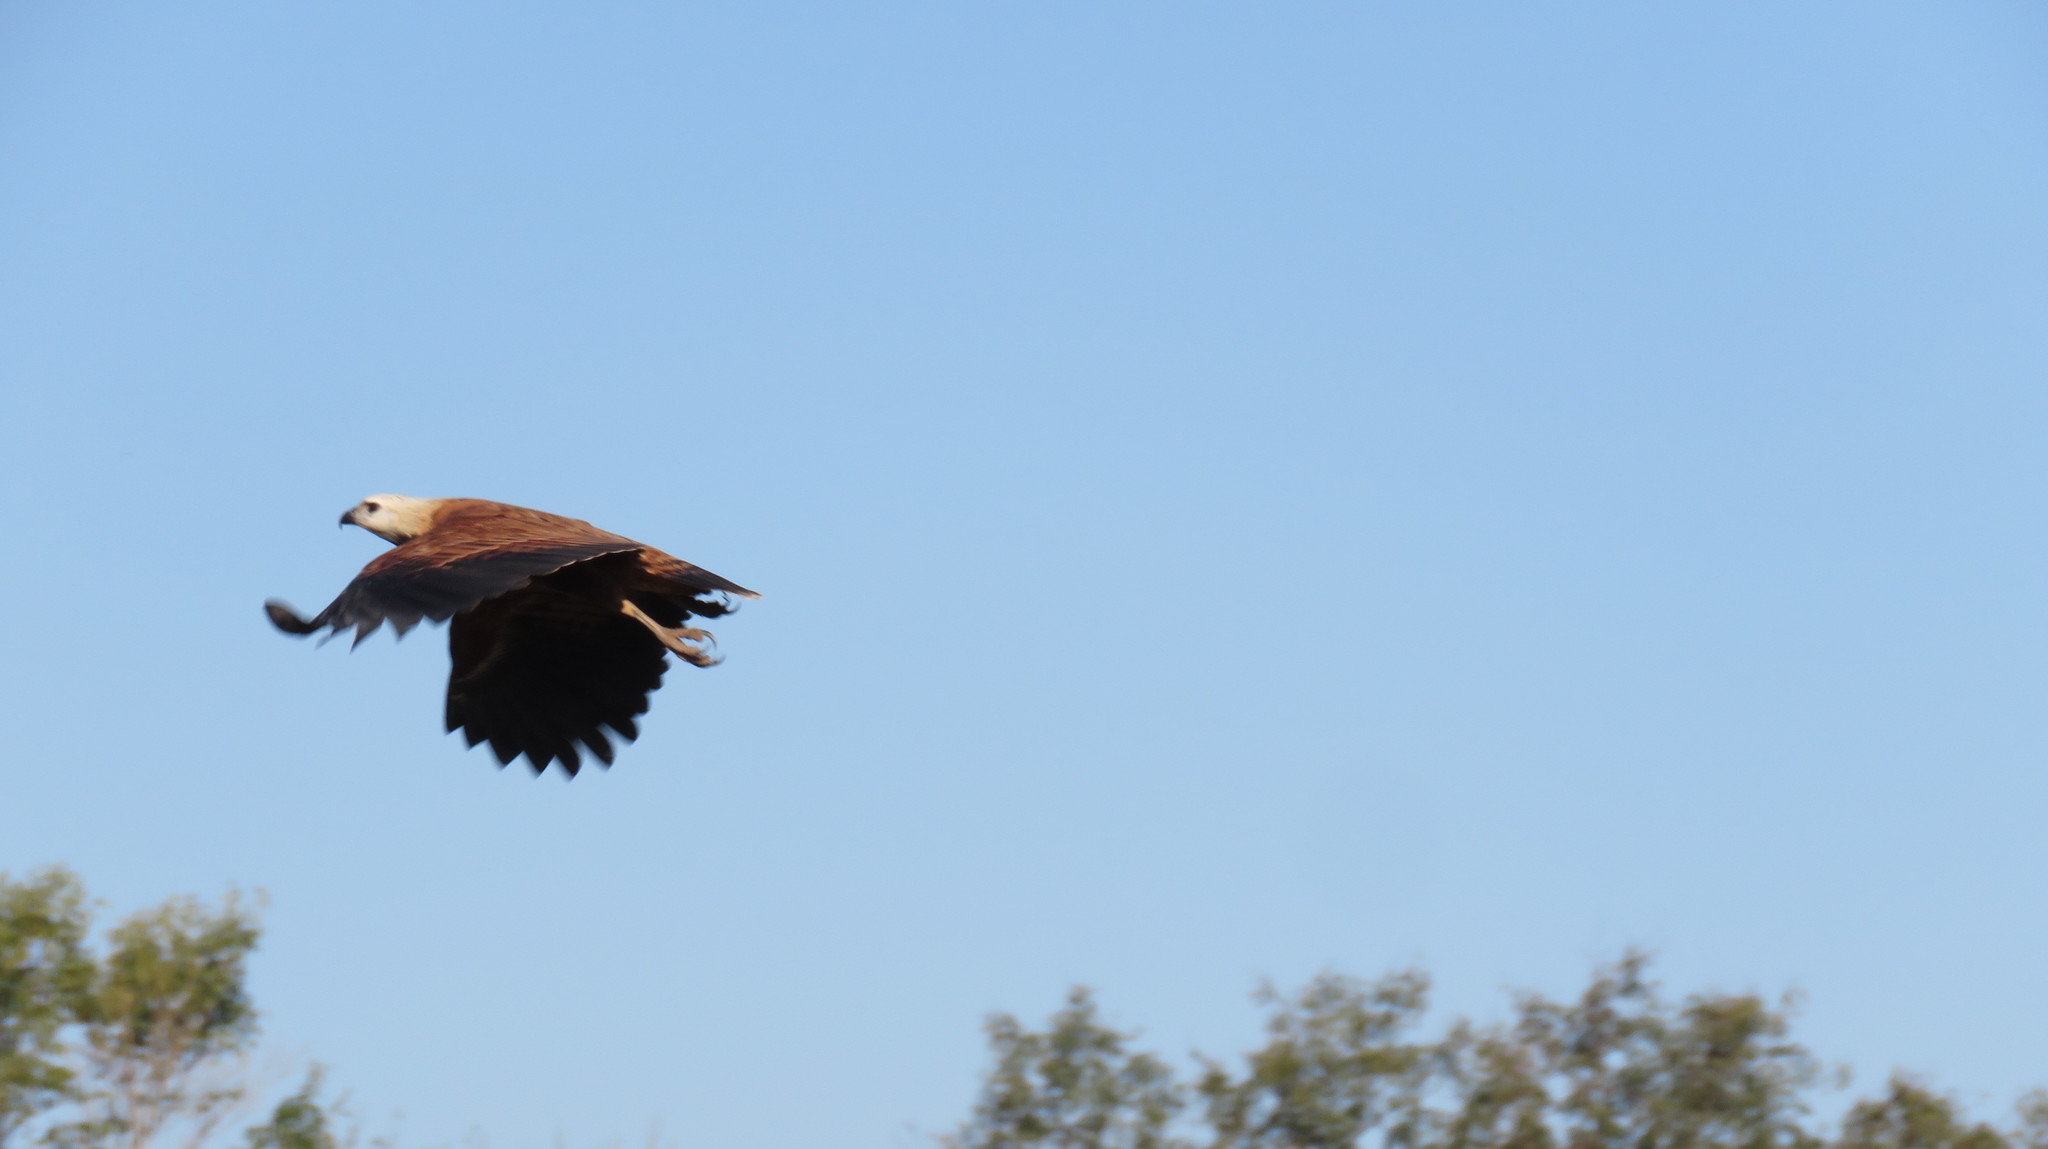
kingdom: Animalia
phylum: Chordata
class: Aves
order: Accipitriformes
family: Accipitridae
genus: Busarellus
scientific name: Busarellus nigricollis
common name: Black-collared hawk
